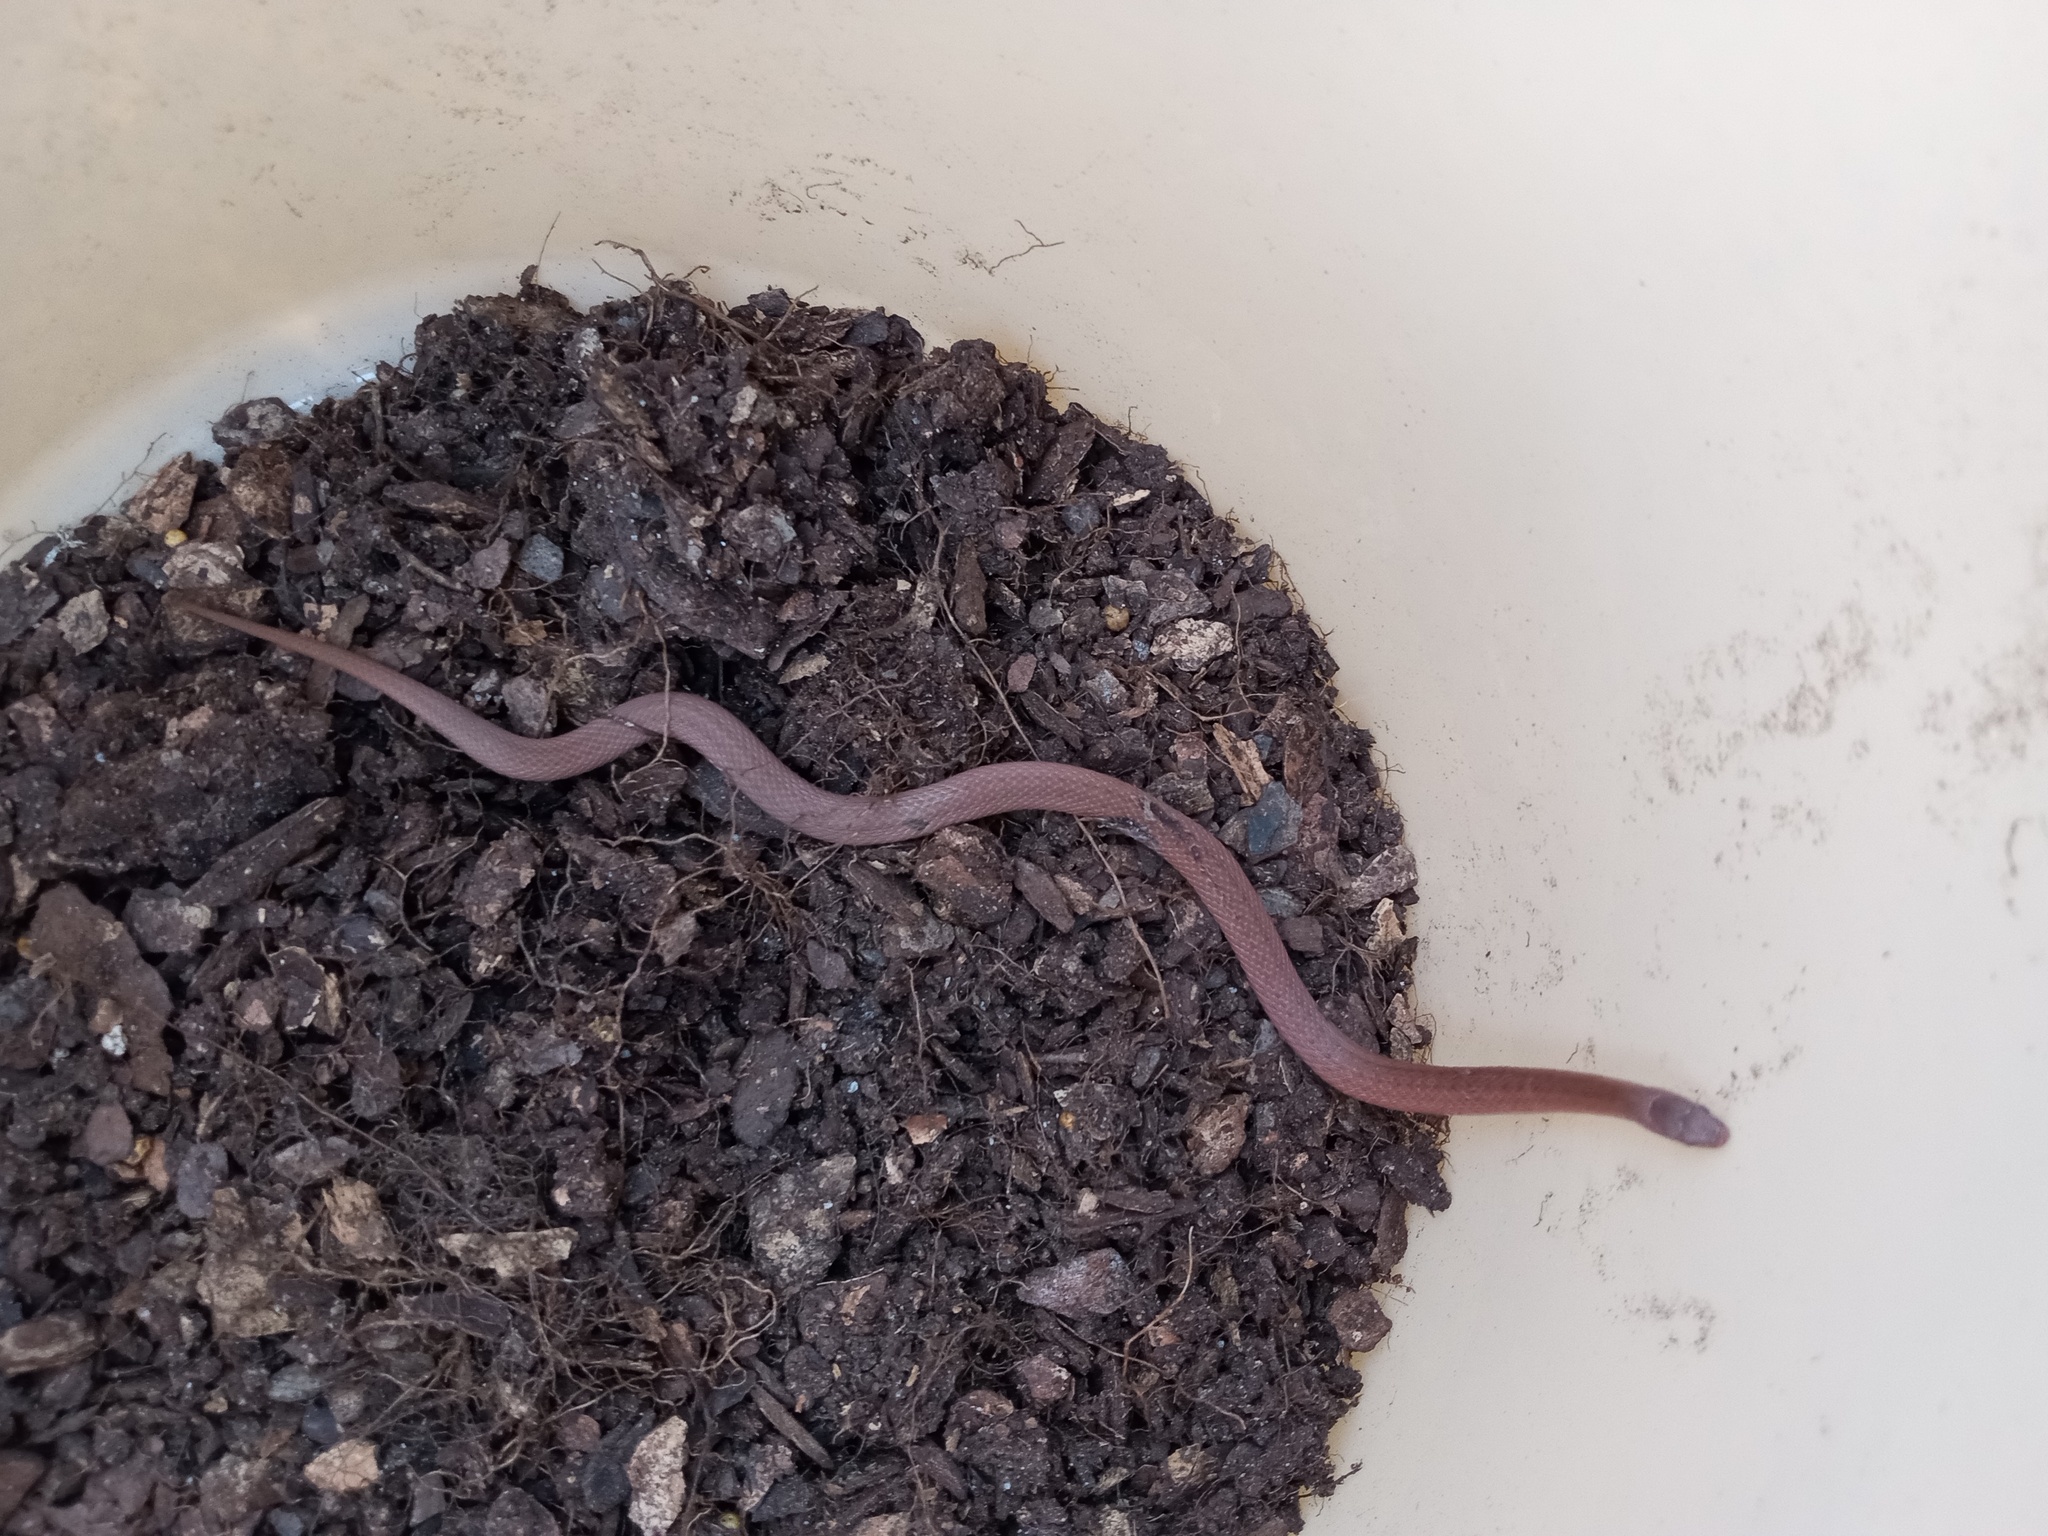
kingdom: Animalia
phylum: Chordata
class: Squamata
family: Colubridae
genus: Storeria
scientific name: Storeria occipitomaculata
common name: Redbelly snake
